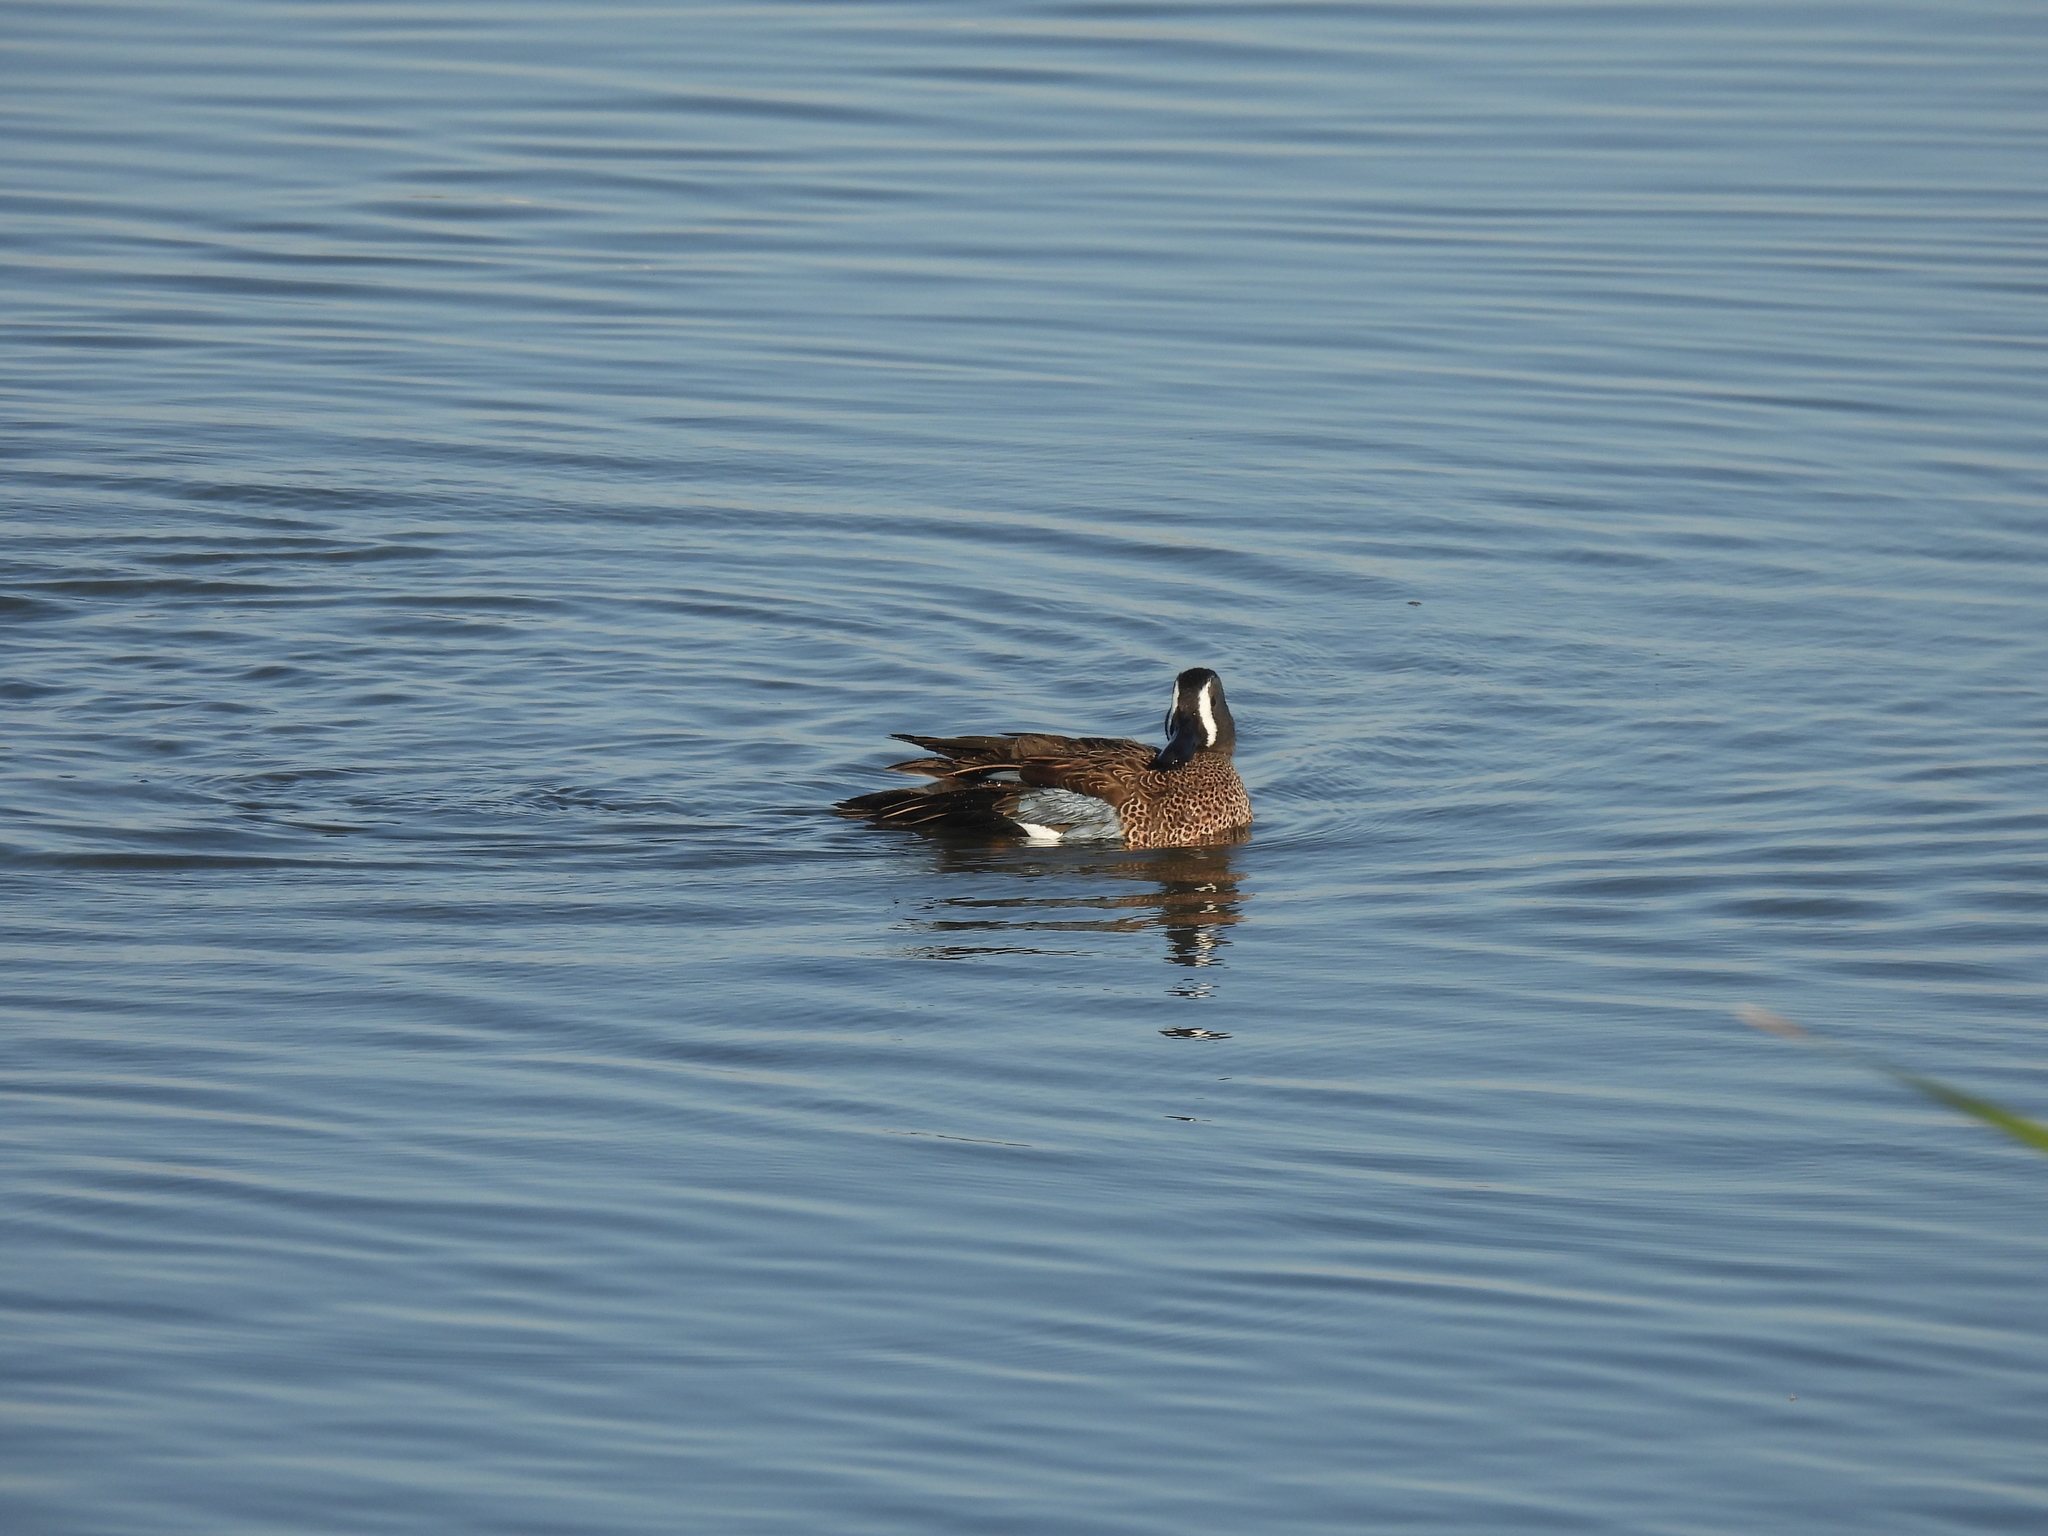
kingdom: Animalia
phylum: Chordata
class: Aves
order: Anseriformes
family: Anatidae
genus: Spatula
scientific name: Spatula discors
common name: Blue-winged teal
